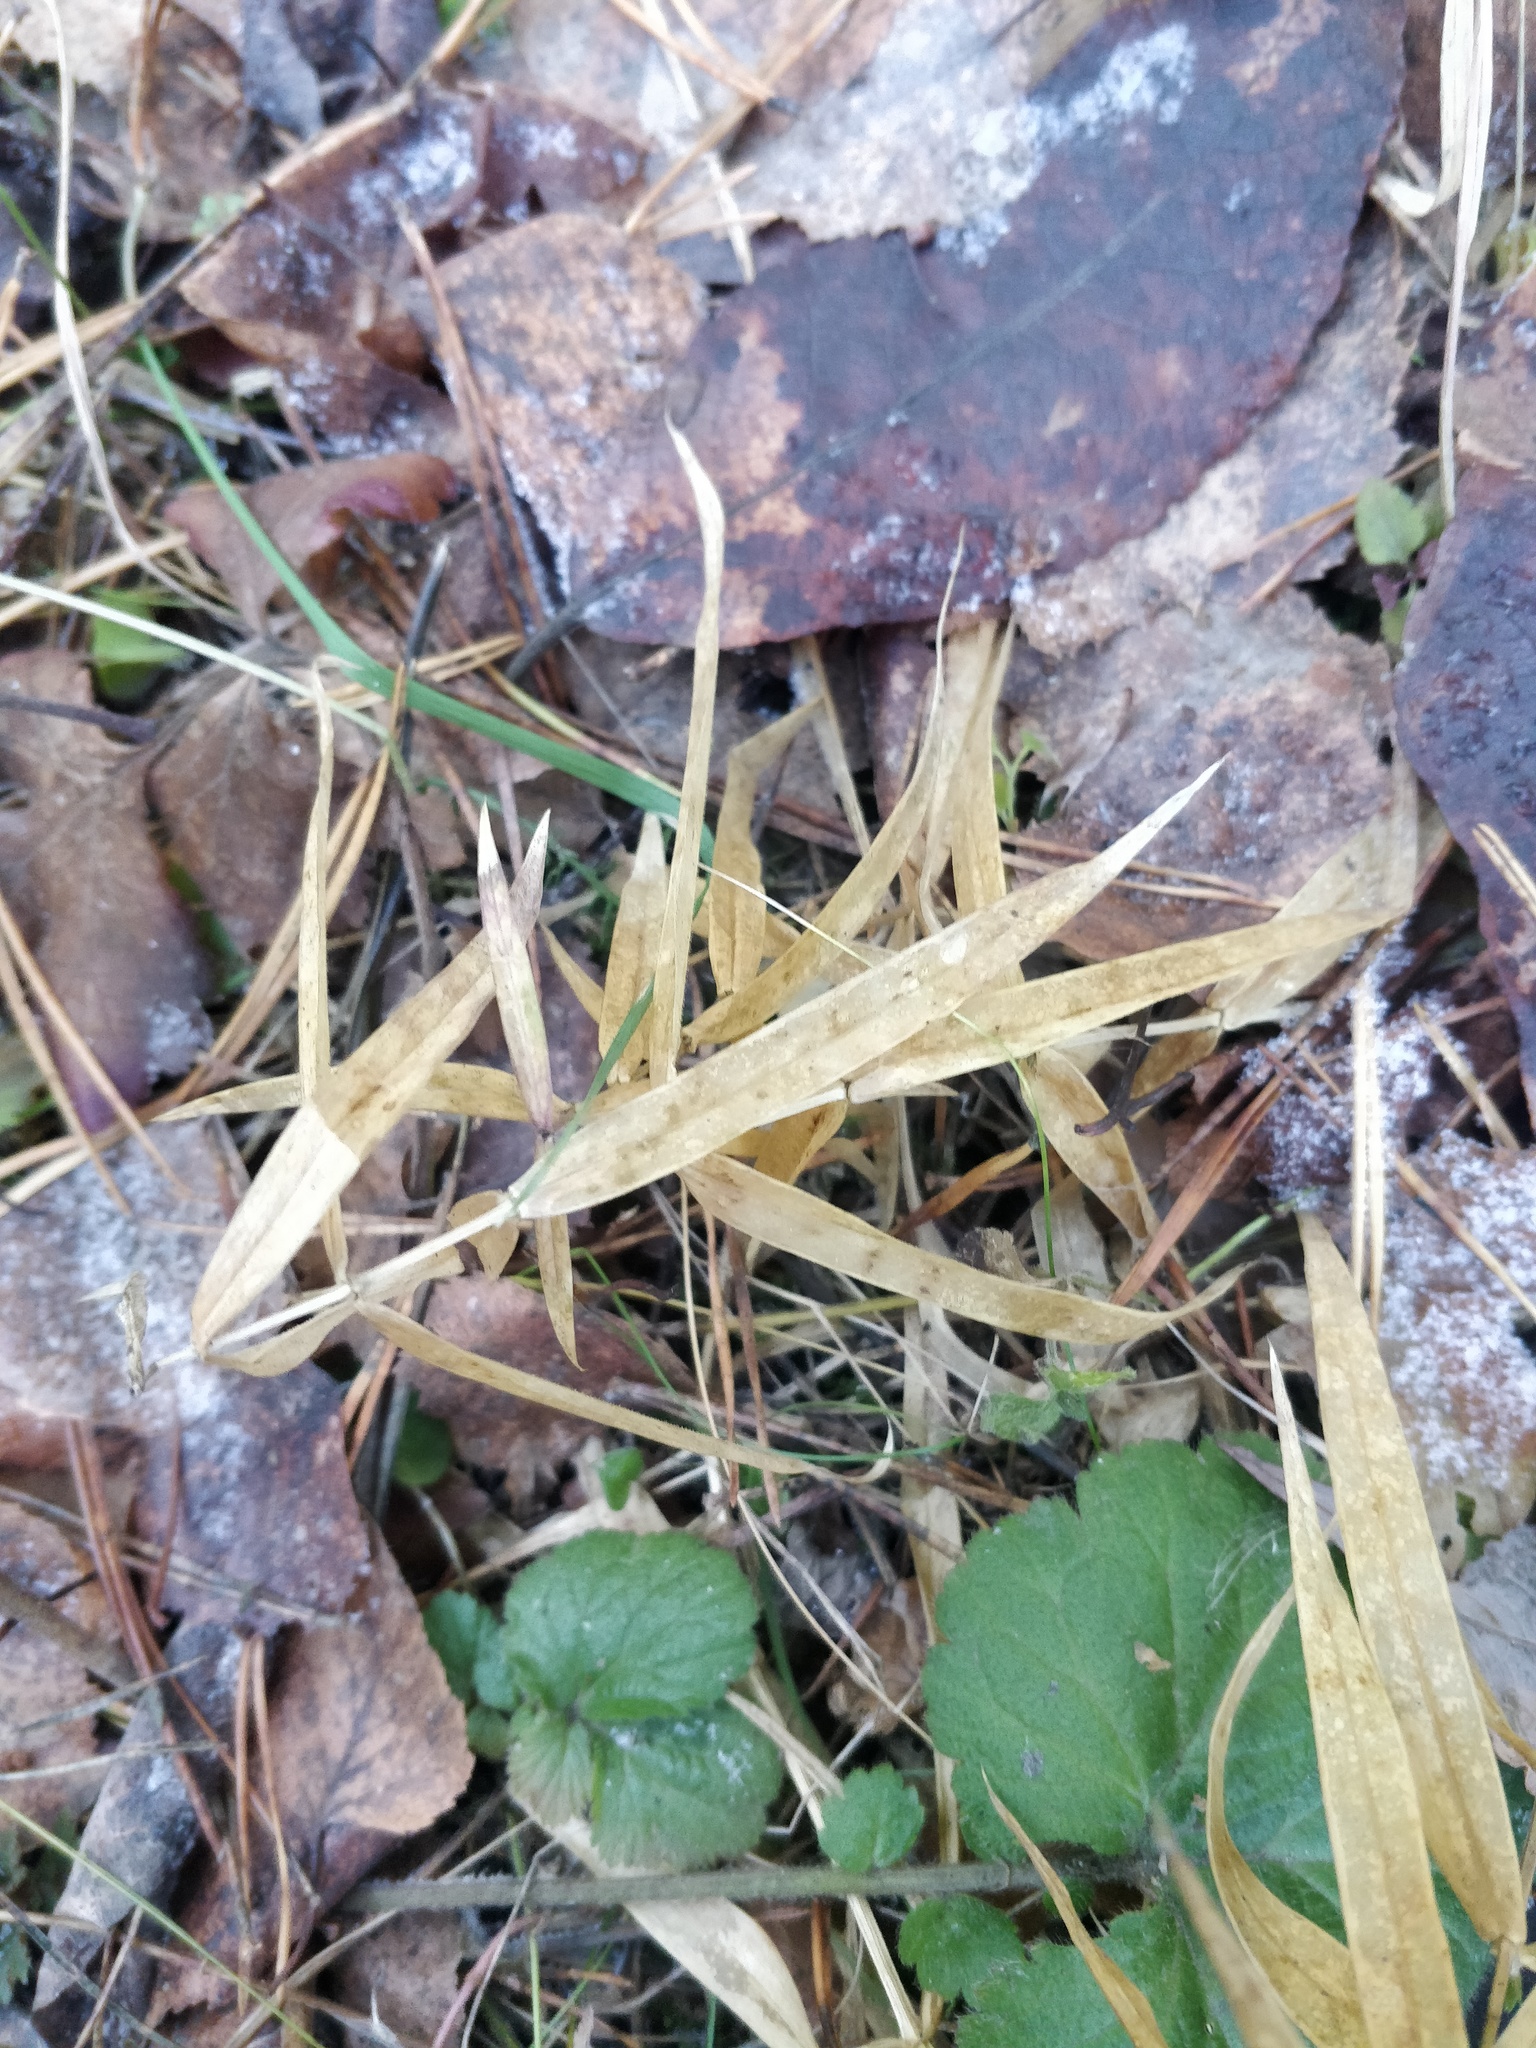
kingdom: Plantae
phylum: Tracheophyta
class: Magnoliopsida
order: Caryophyllales
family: Caryophyllaceae
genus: Rabelera
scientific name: Rabelera holostea
